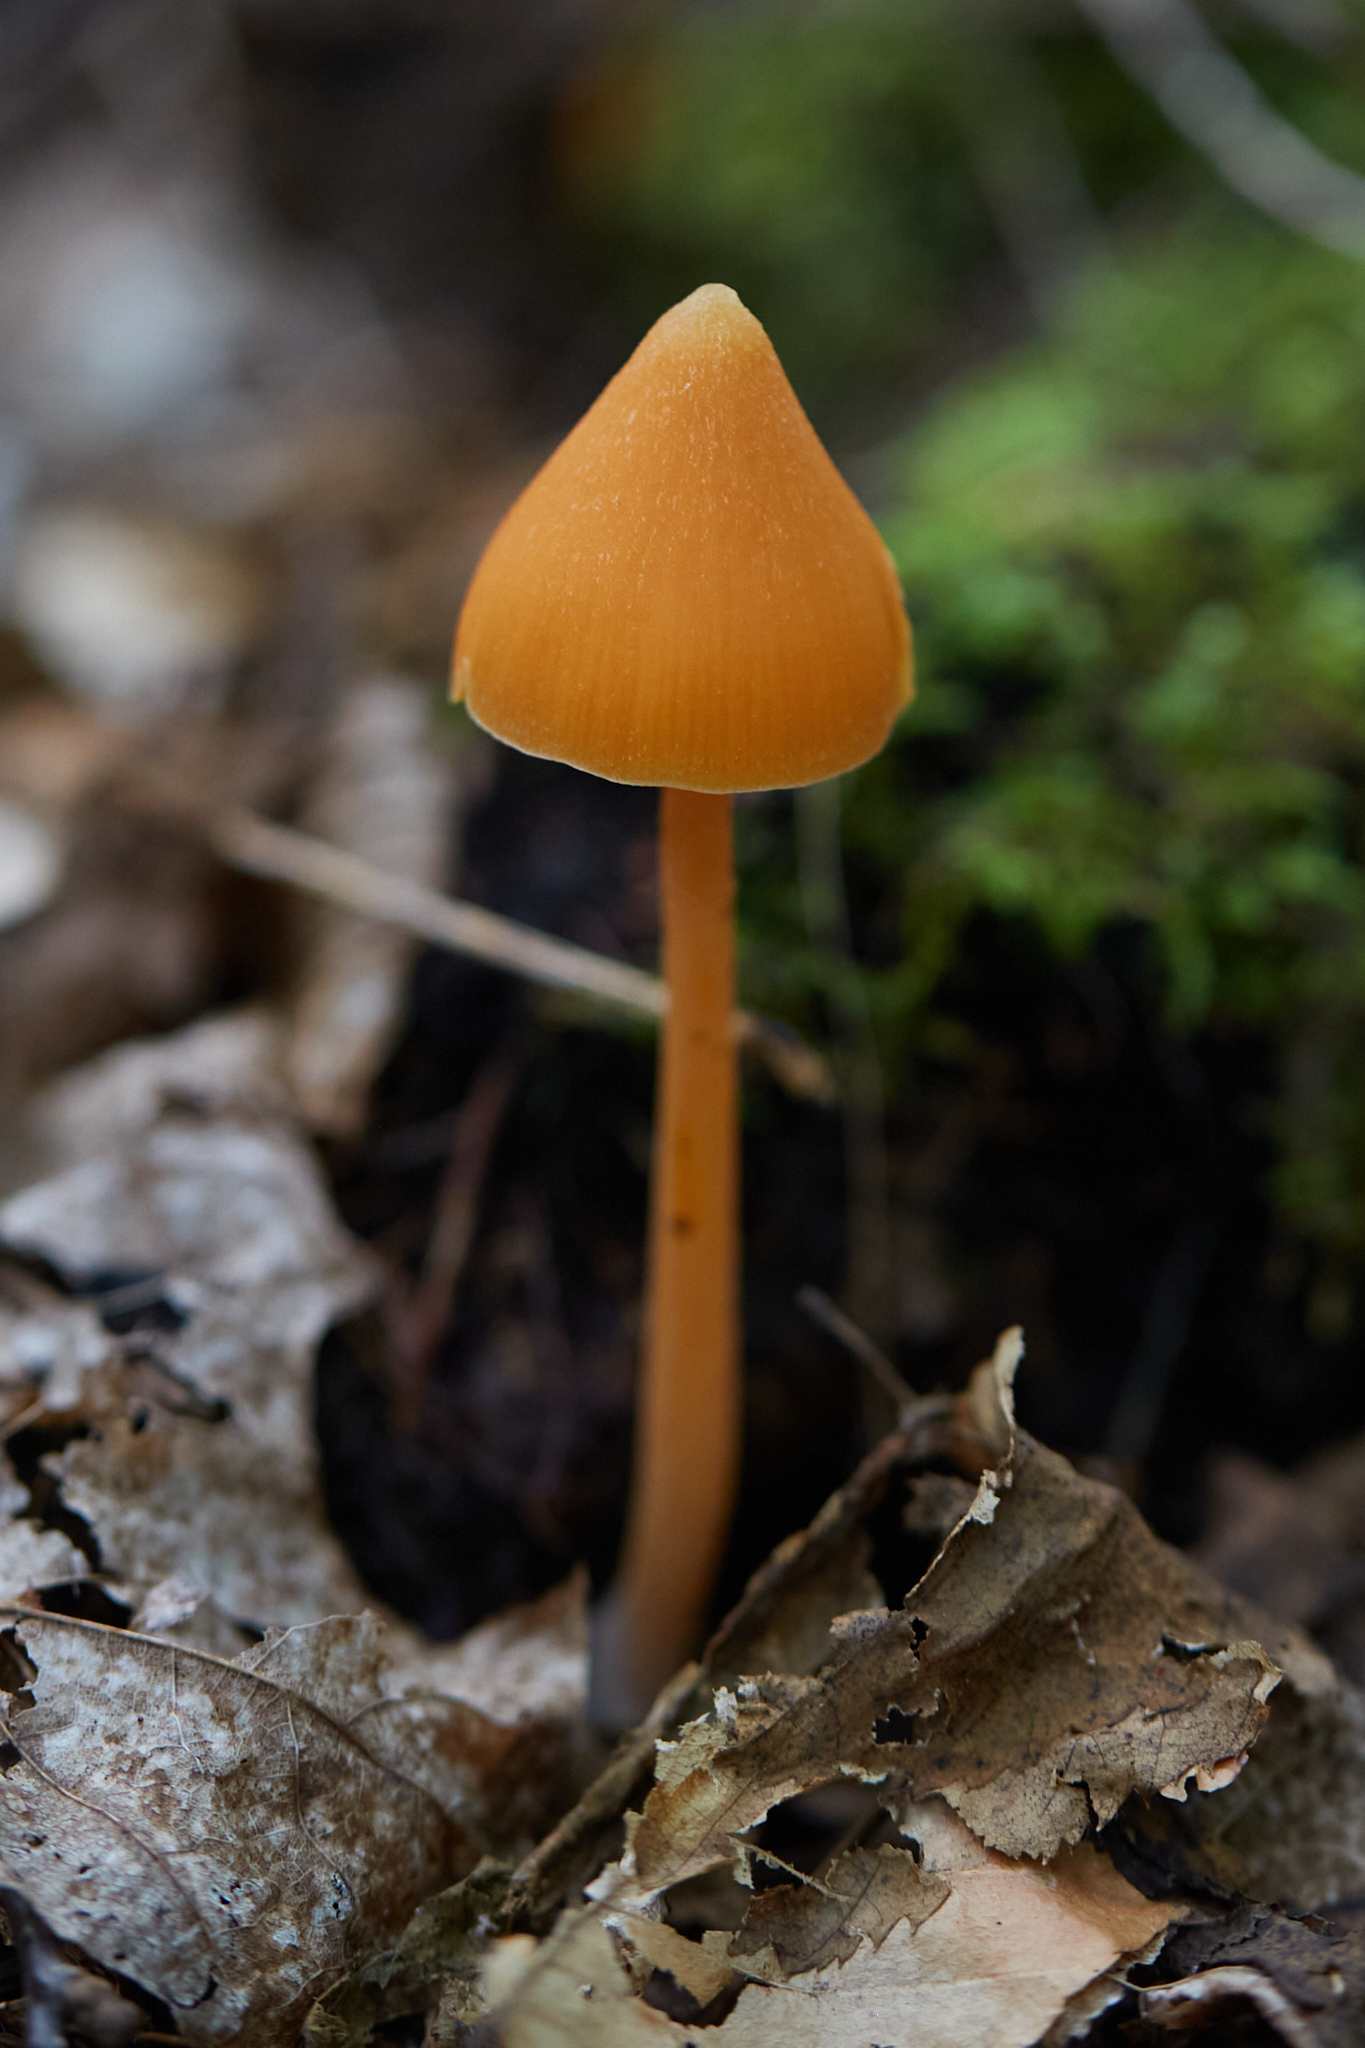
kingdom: Fungi
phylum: Basidiomycota
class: Agaricomycetes
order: Agaricales
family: Entolomataceae
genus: Entoloma
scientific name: Entoloma quadratum
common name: Salmon pinkgill
